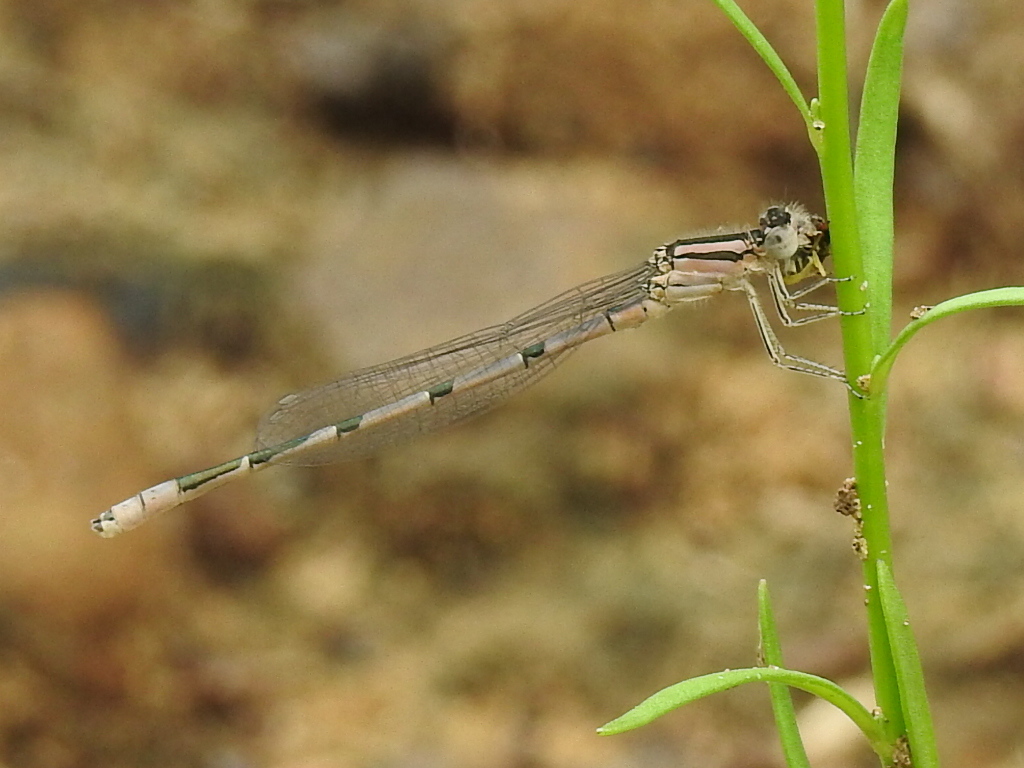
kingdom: Animalia
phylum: Arthropoda
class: Insecta
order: Odonata
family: Coenagrionidae
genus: Enallagma
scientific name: Enallagma civile
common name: Damselfly
